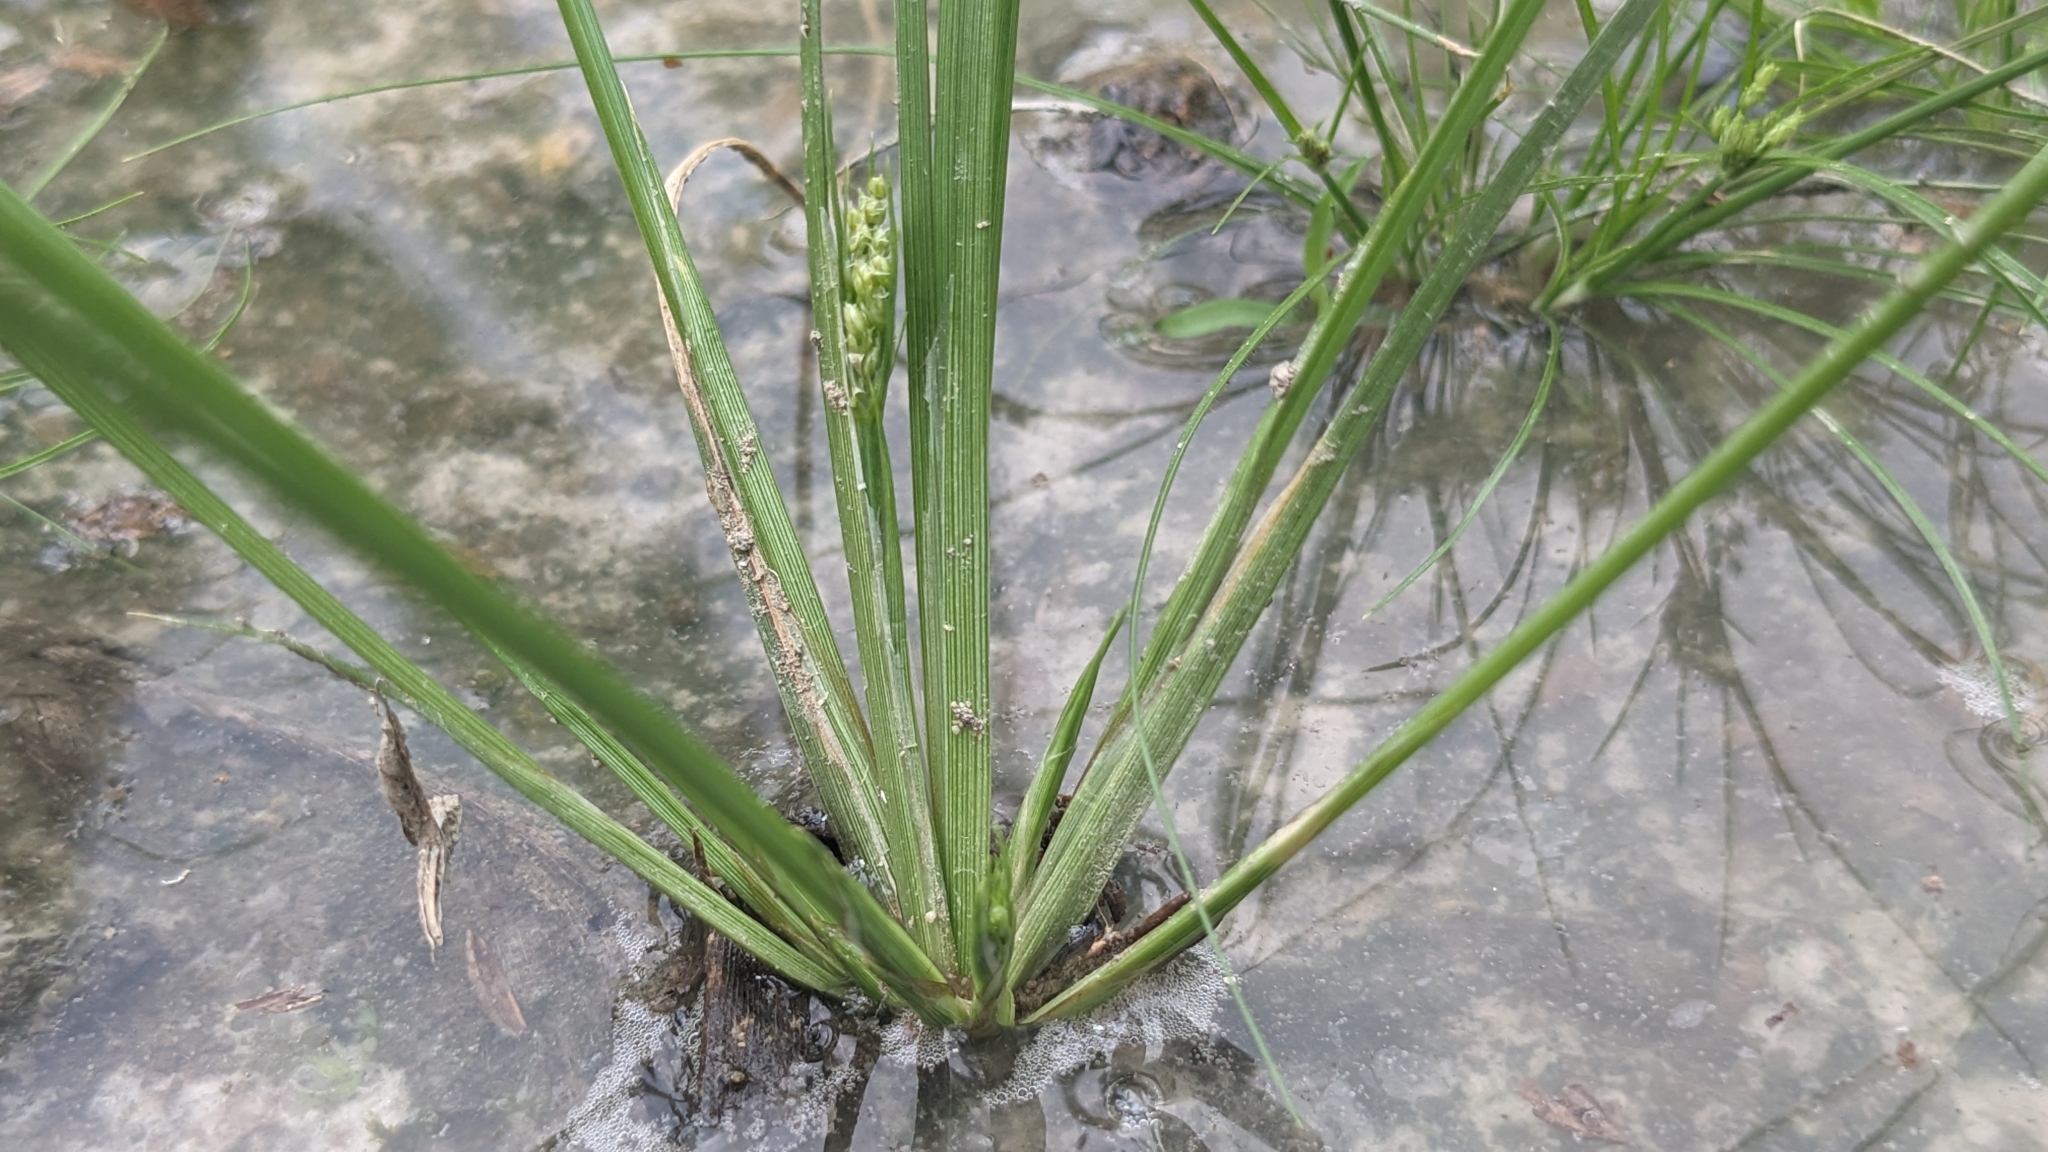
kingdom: Plantae
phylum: Tracheophyta
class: Liliopsida
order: Poales
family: Cyperaceae
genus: Fimbristylis
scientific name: Fimbristylis littoralis
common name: Fimbry
